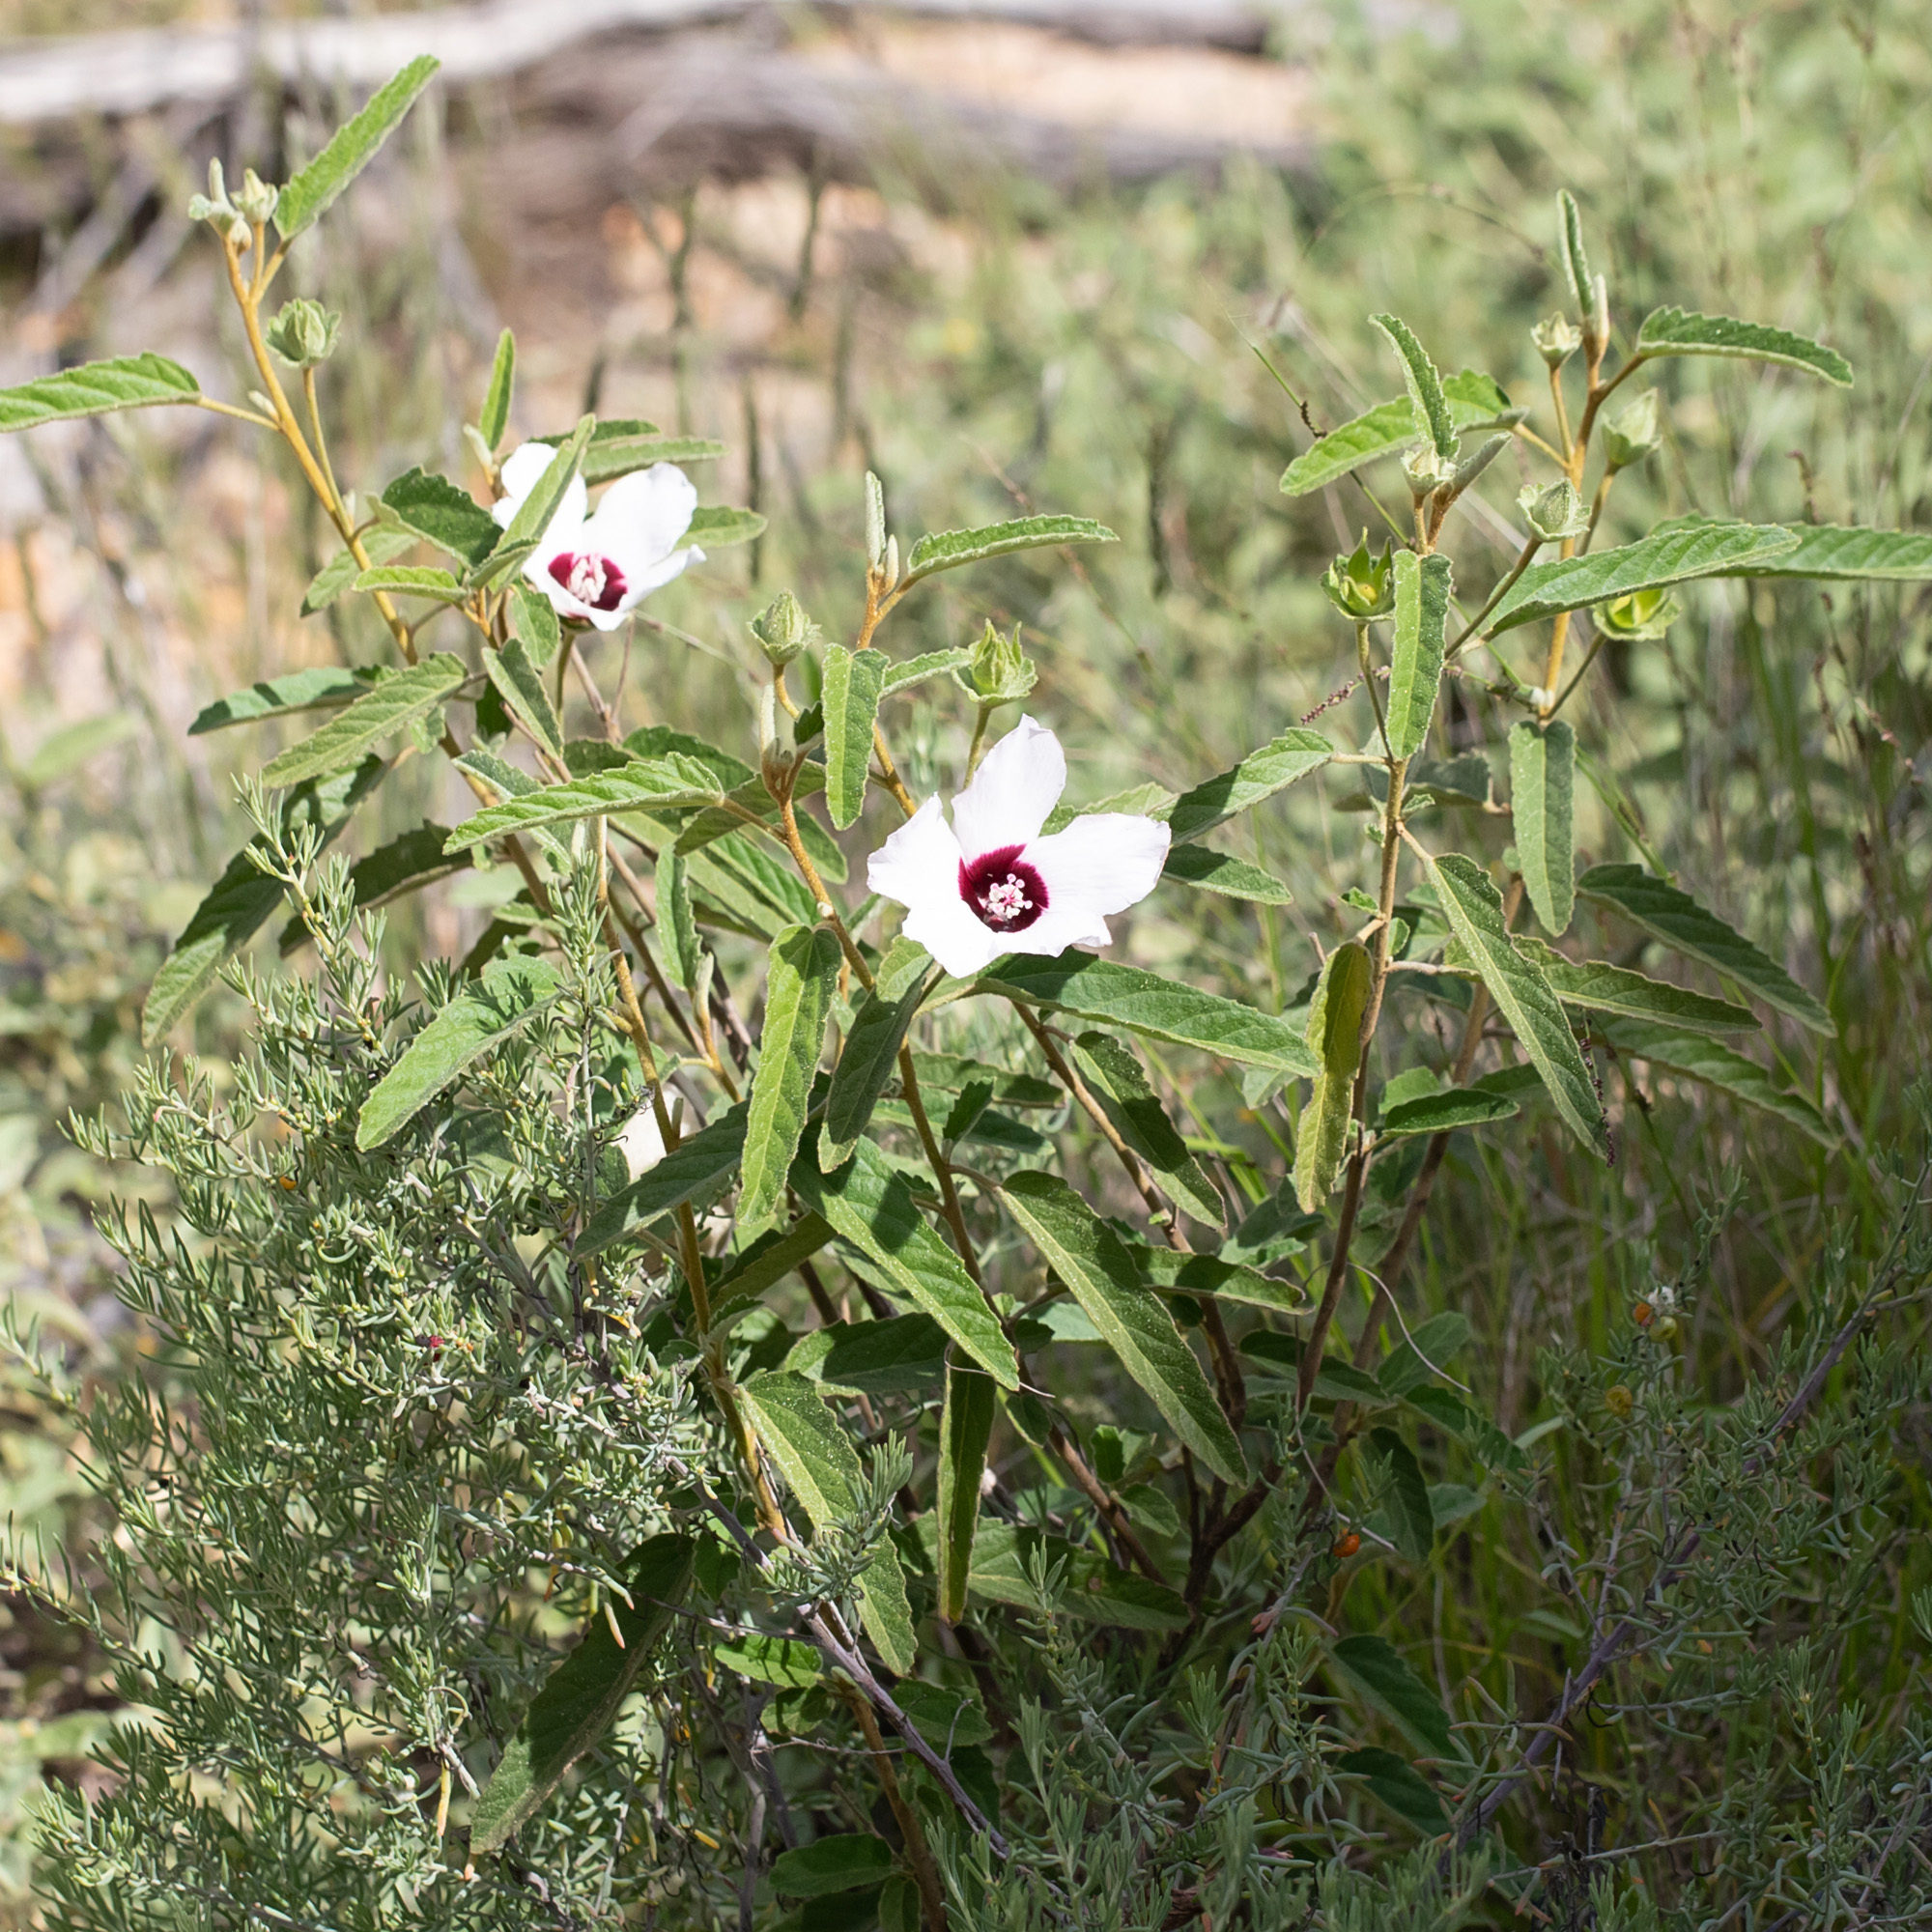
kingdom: Plantae
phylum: Tracheophyta
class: Magnoliopsida
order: Malvales
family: Malvaceae
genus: Hibiscus
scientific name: Hibiscus sturtii
